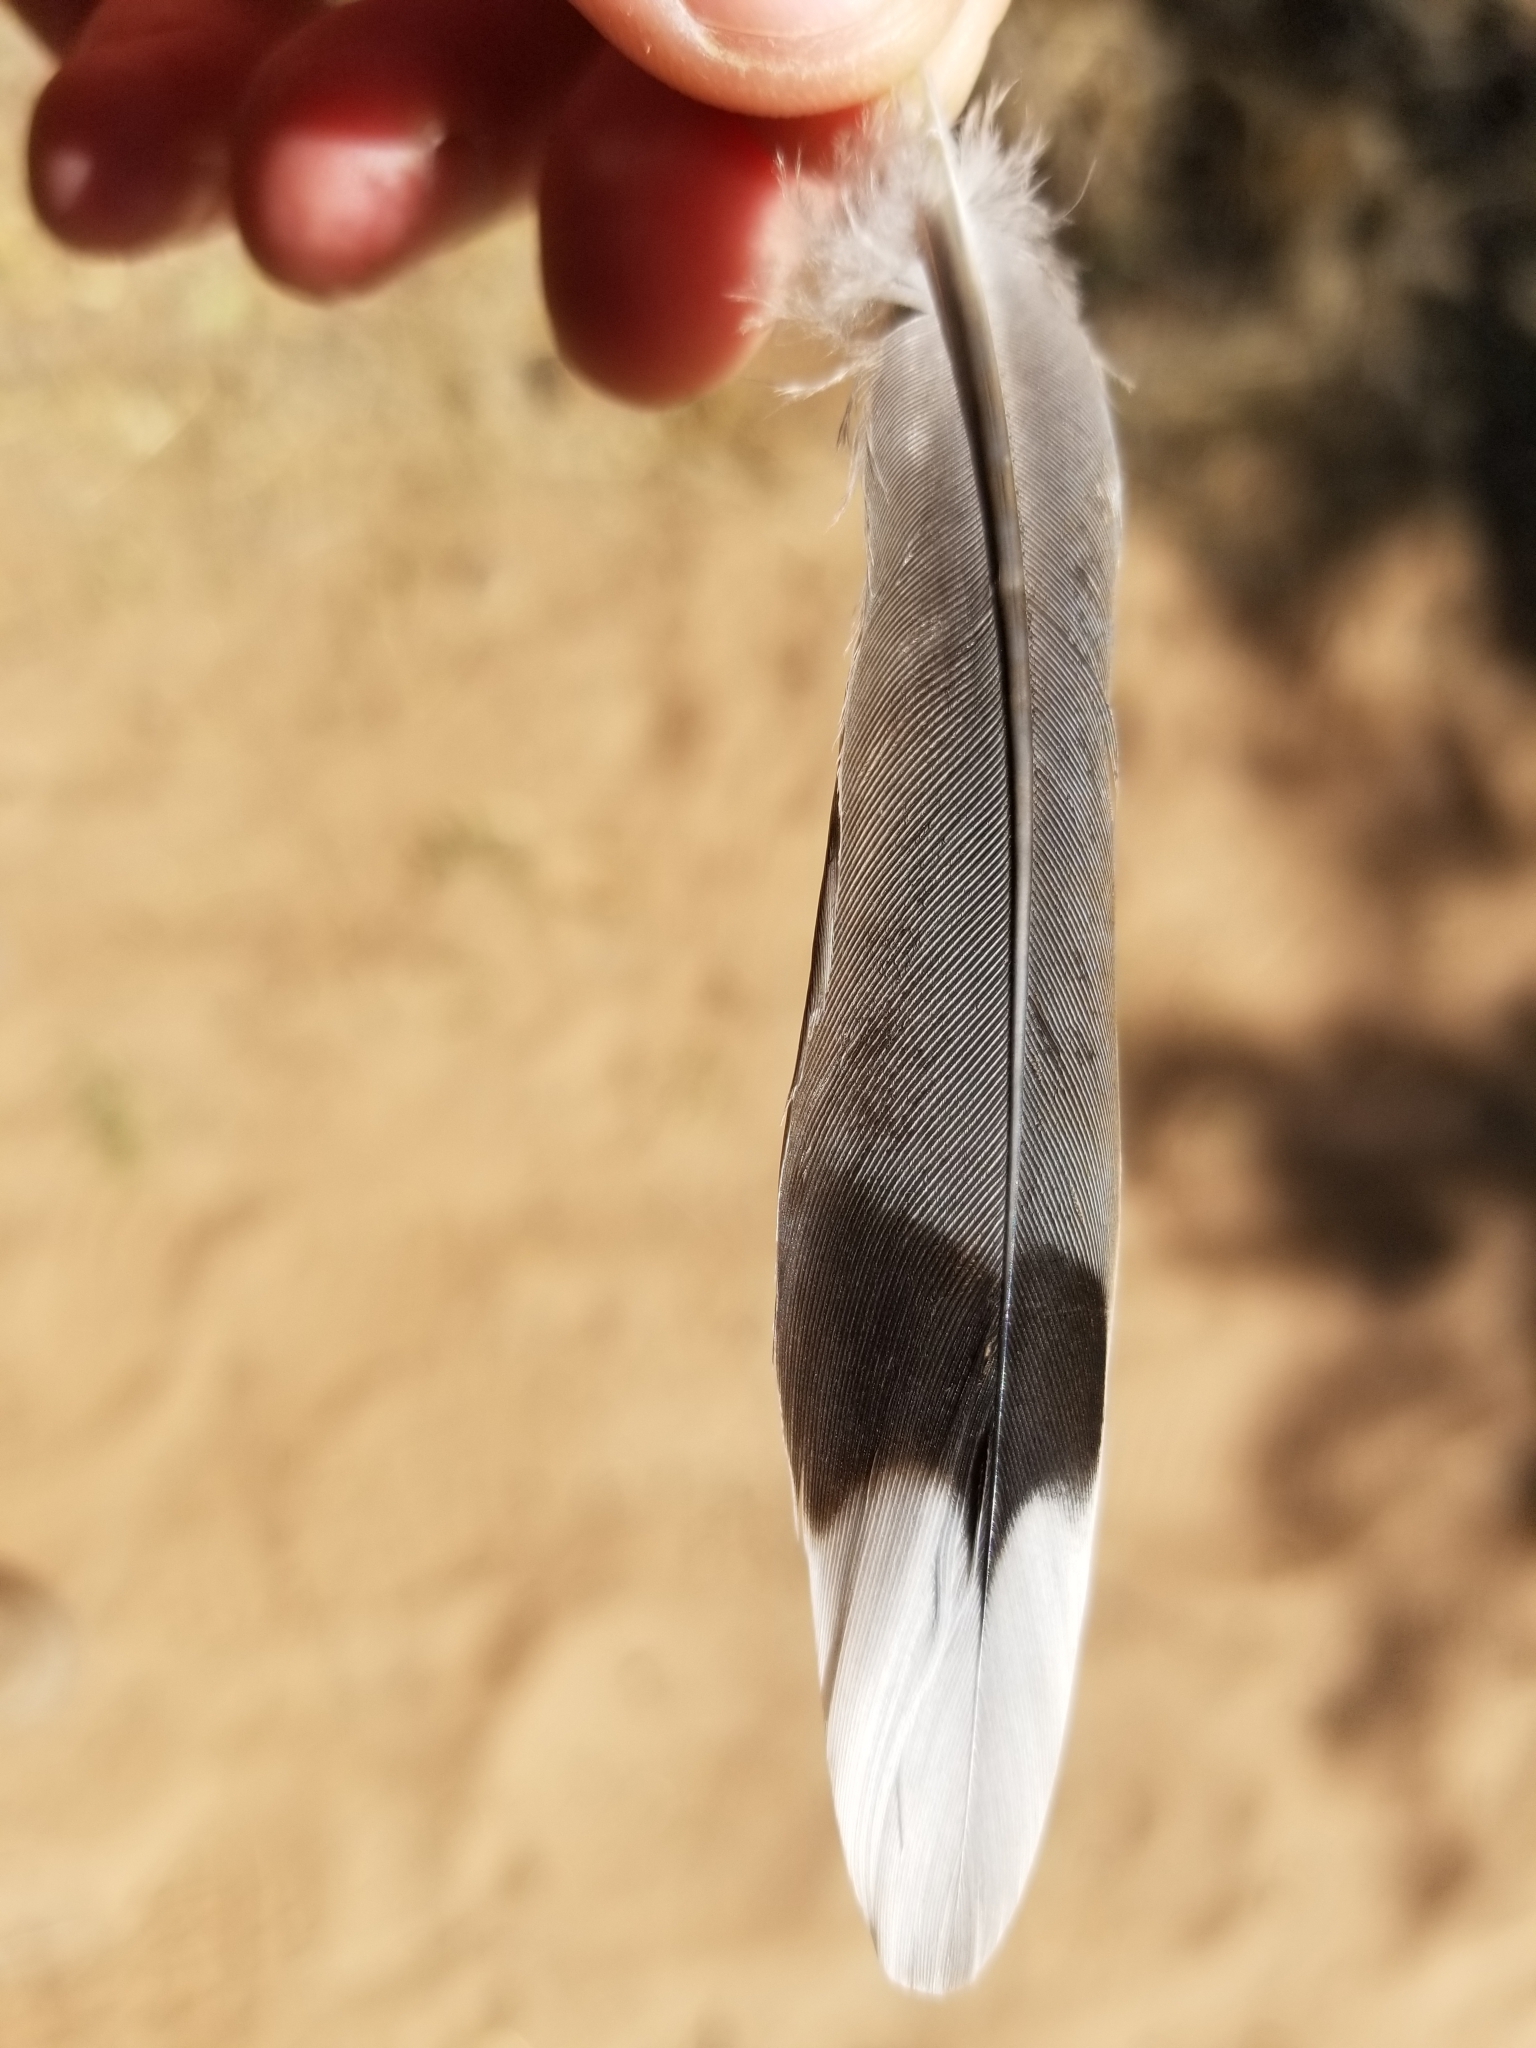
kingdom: Animalia
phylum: Chordata
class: Aves
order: Columbiformes
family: Columbidae
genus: Zenaida
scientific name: Zenaida macroura
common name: Mourning dove
